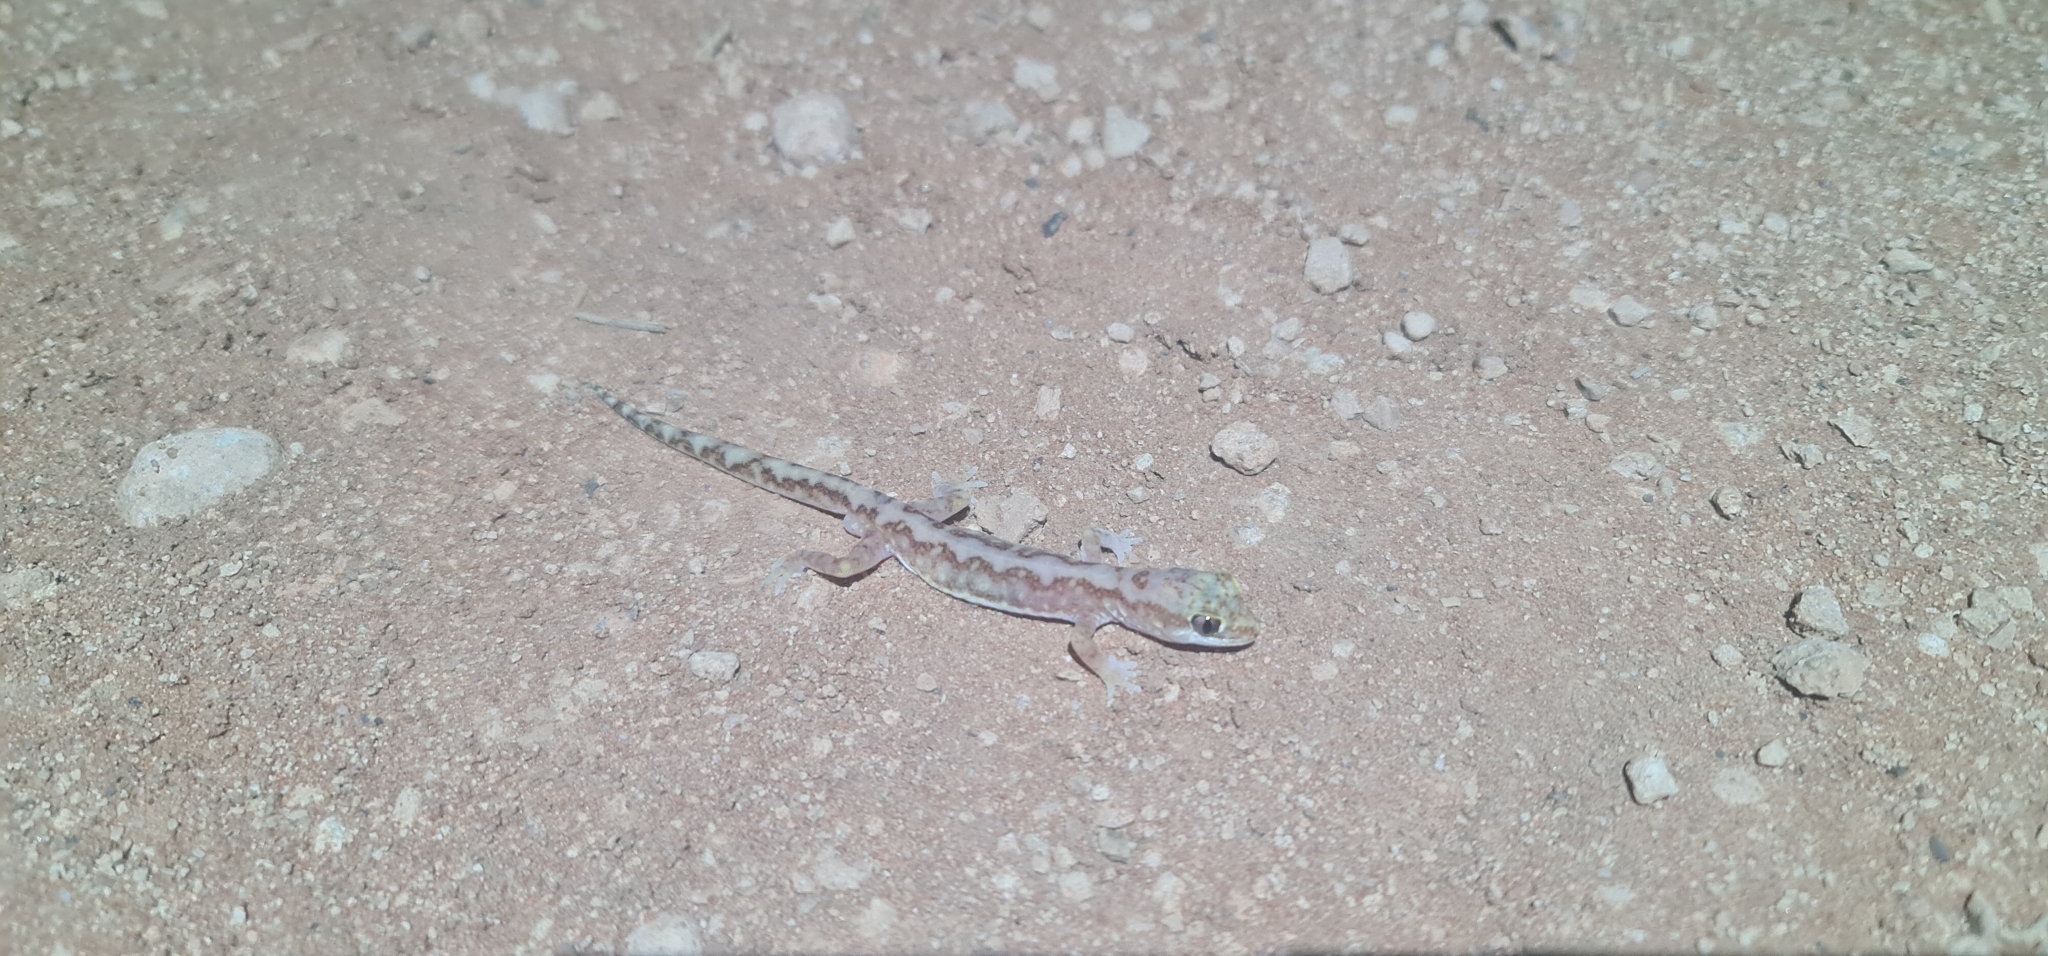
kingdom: Animalia
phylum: Chordata
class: Squamata
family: Diplodactylidae
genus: Lucasium
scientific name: Lucasium damaeum
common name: Beaded gecko
